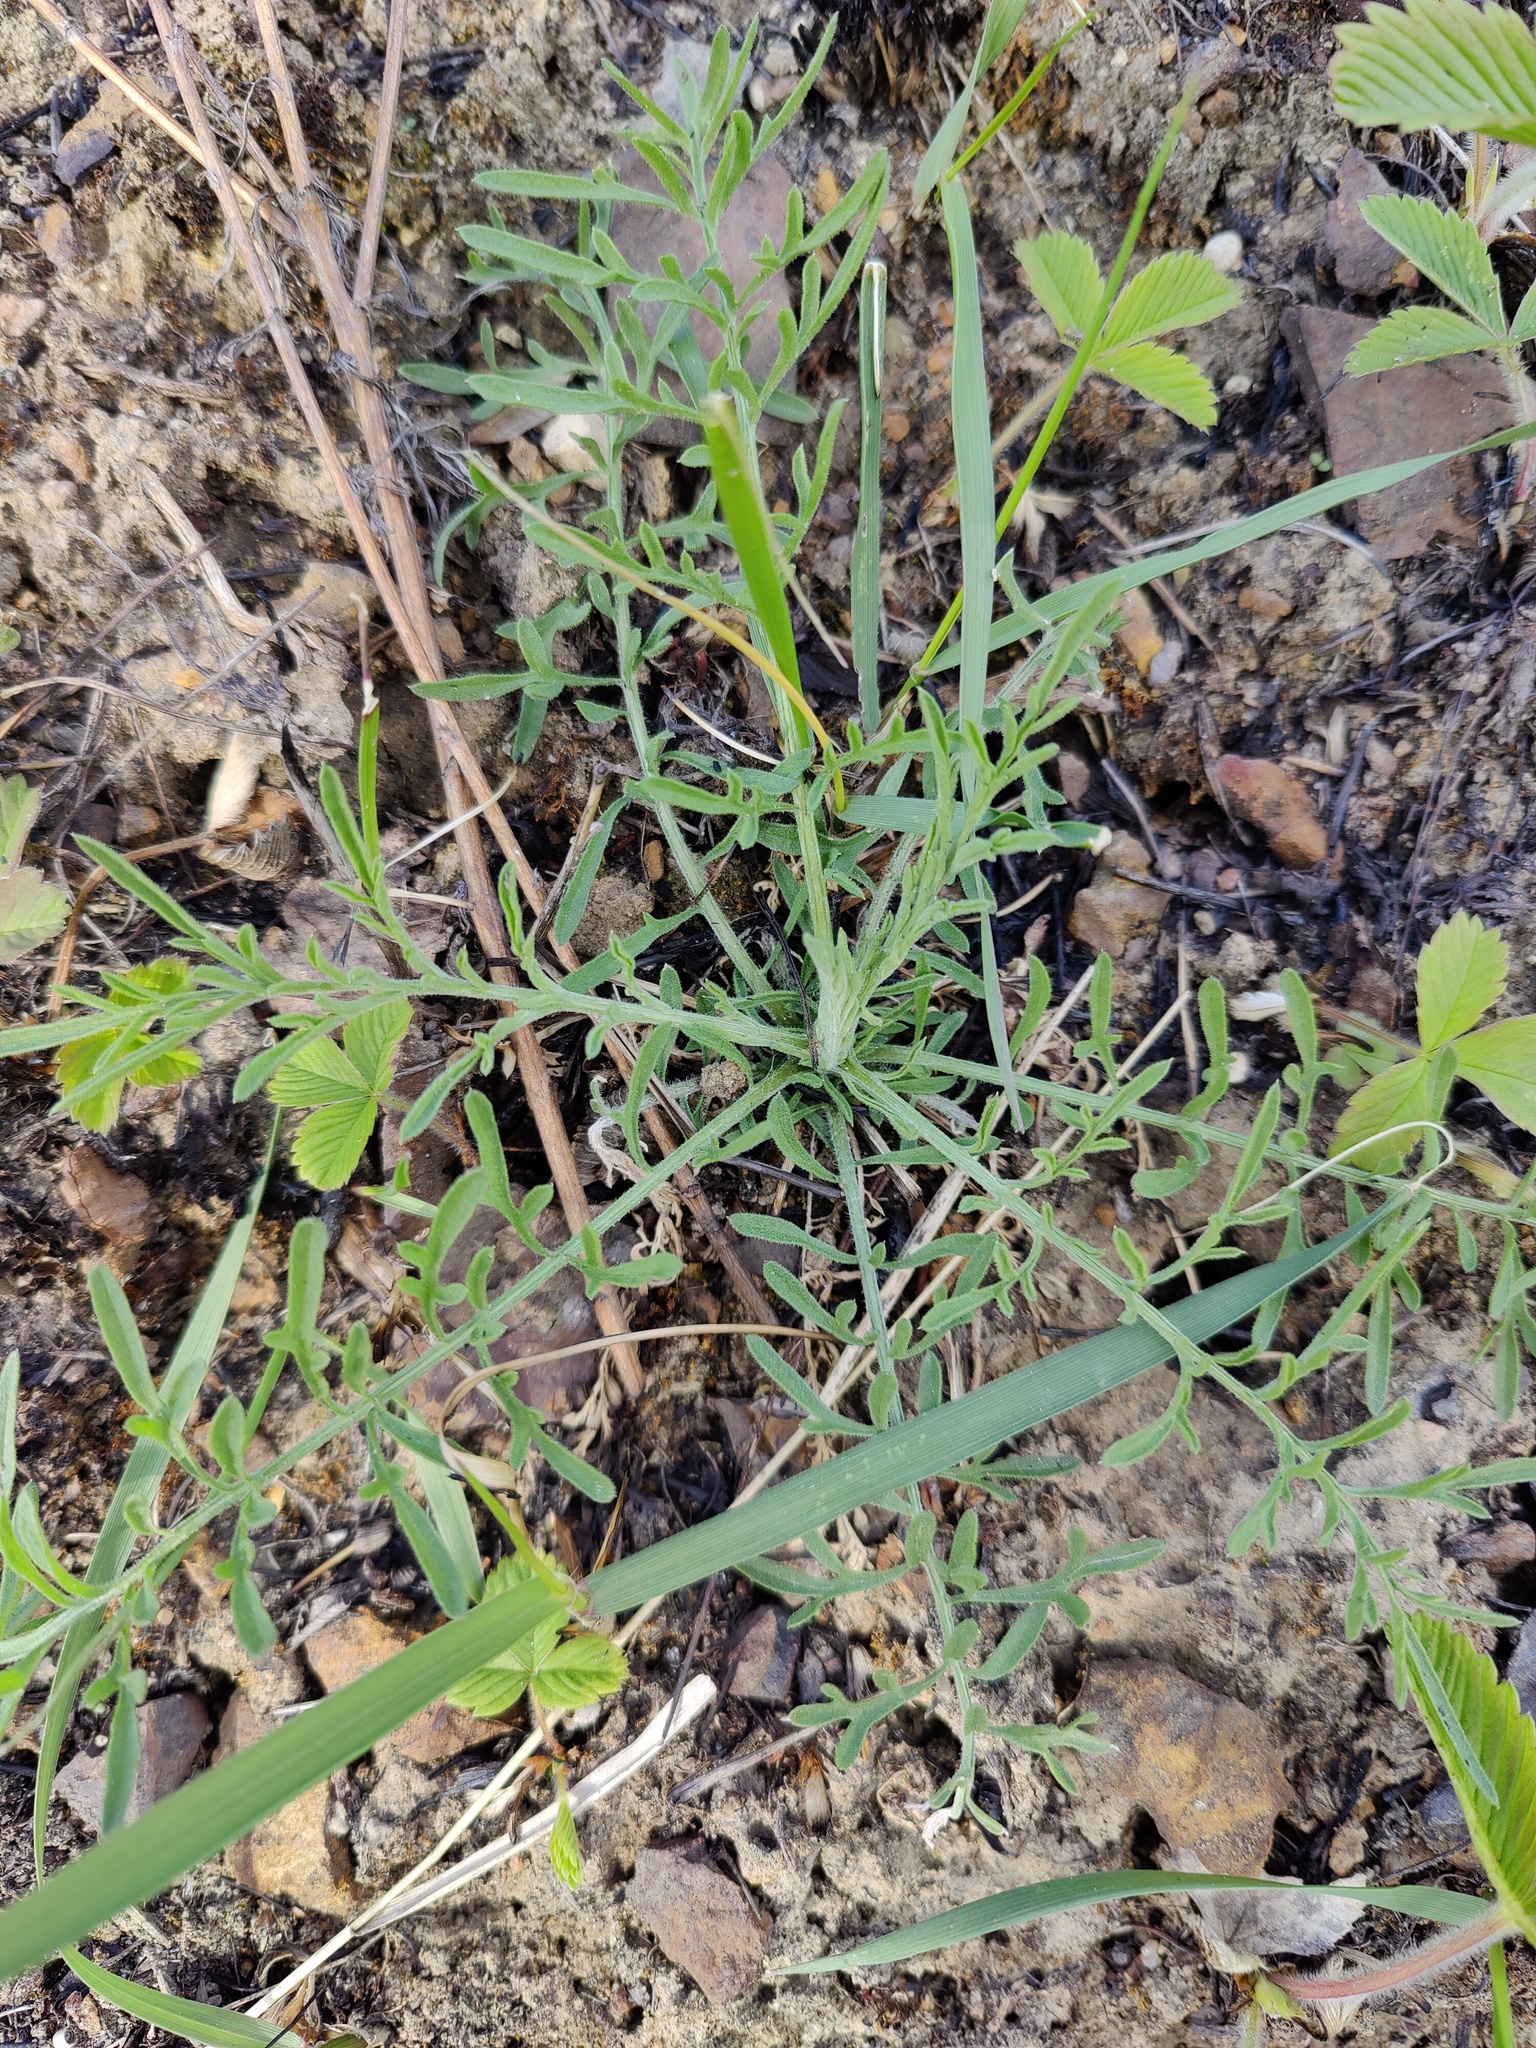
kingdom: Plantae
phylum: Tracheophyta
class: Magnoliopsida
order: Asterales
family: Asteraceae
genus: Centaurea
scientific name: Centaurea stoebe
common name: Spotted knapweed
